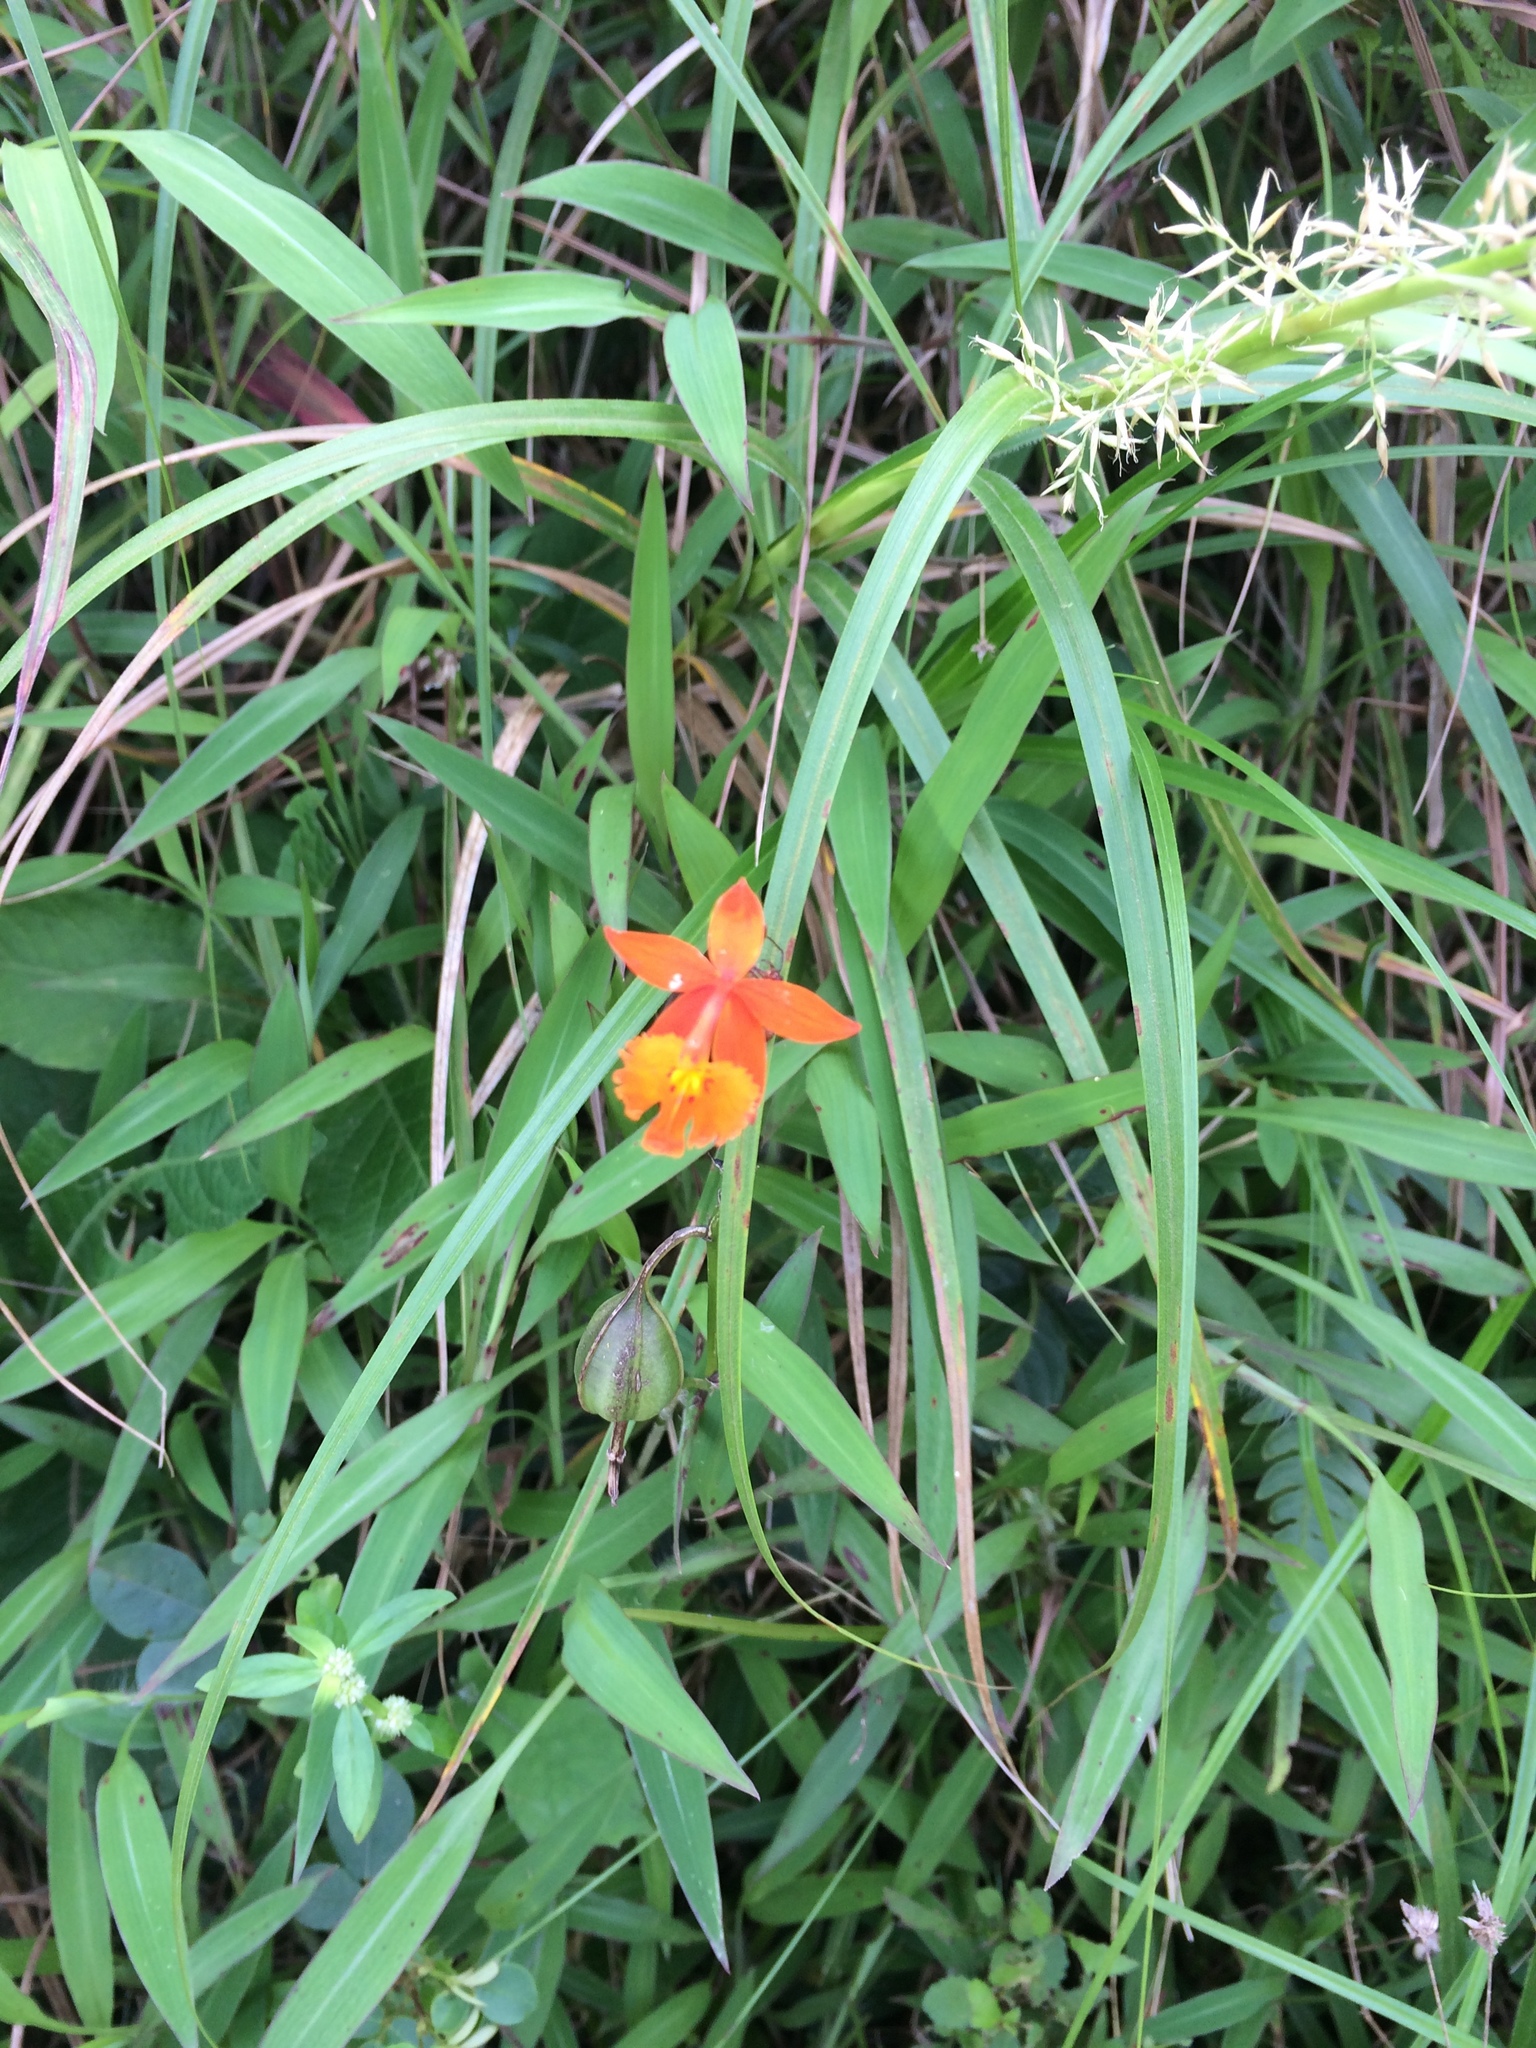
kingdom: Plantae
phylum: Tracheophyta
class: Liliopsida
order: Asparagales
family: Orchidaceae
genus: Epidendrum
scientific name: Epidendrum radicans
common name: Fire star orchid
